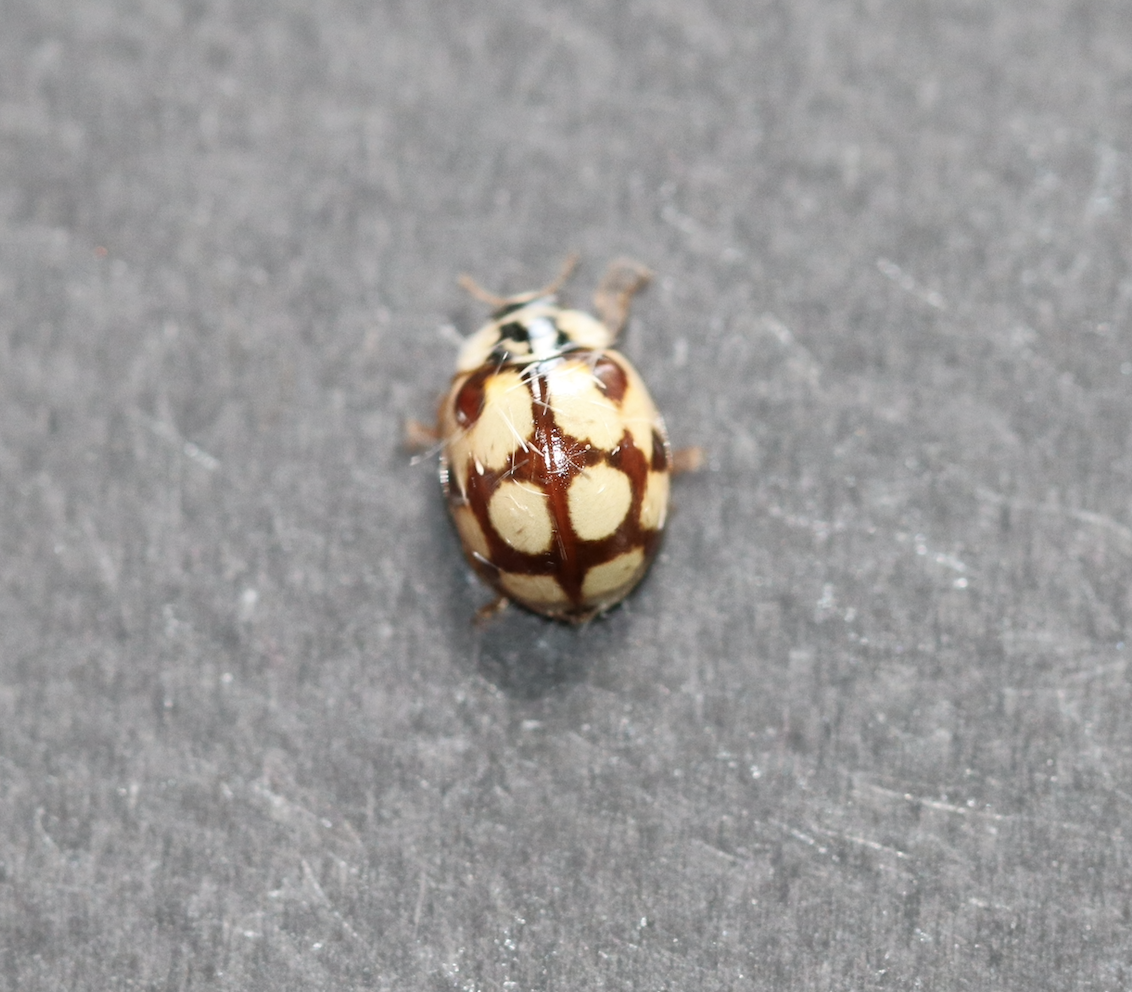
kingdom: Animalia
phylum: Arthropoda
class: Insecta
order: Coleoptera
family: Coccinellidae
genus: Adalia
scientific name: Adalia decempunctata
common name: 10-spot ladybird
